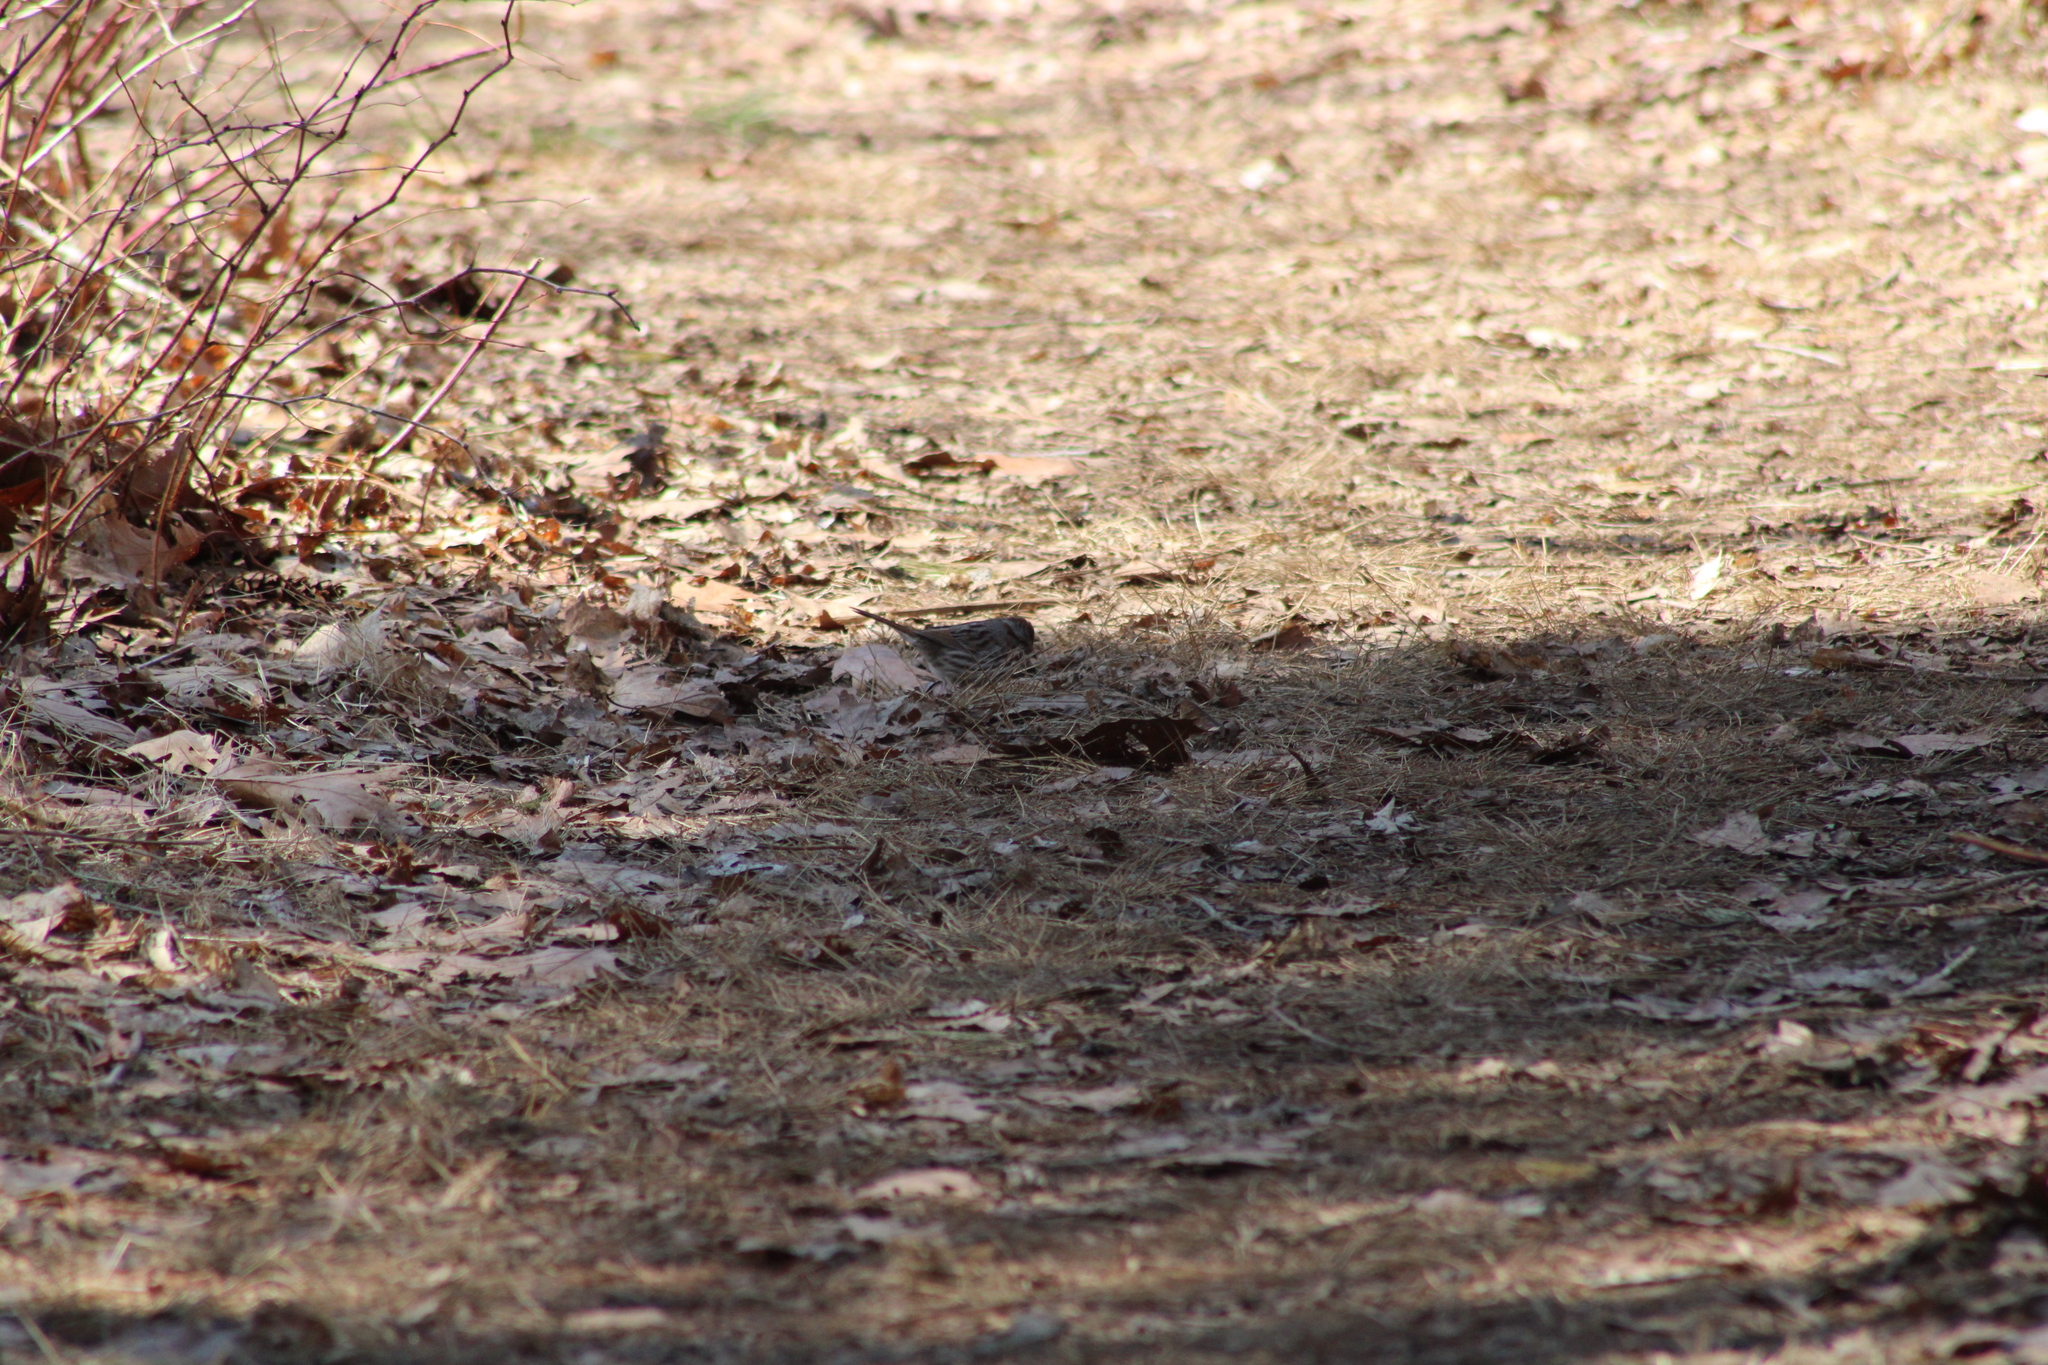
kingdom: Animalia
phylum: Chordata
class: Aves
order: Passeriformes
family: Passerellidae
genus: Melospiza
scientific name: Melospiza melodia
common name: Song sparrow
